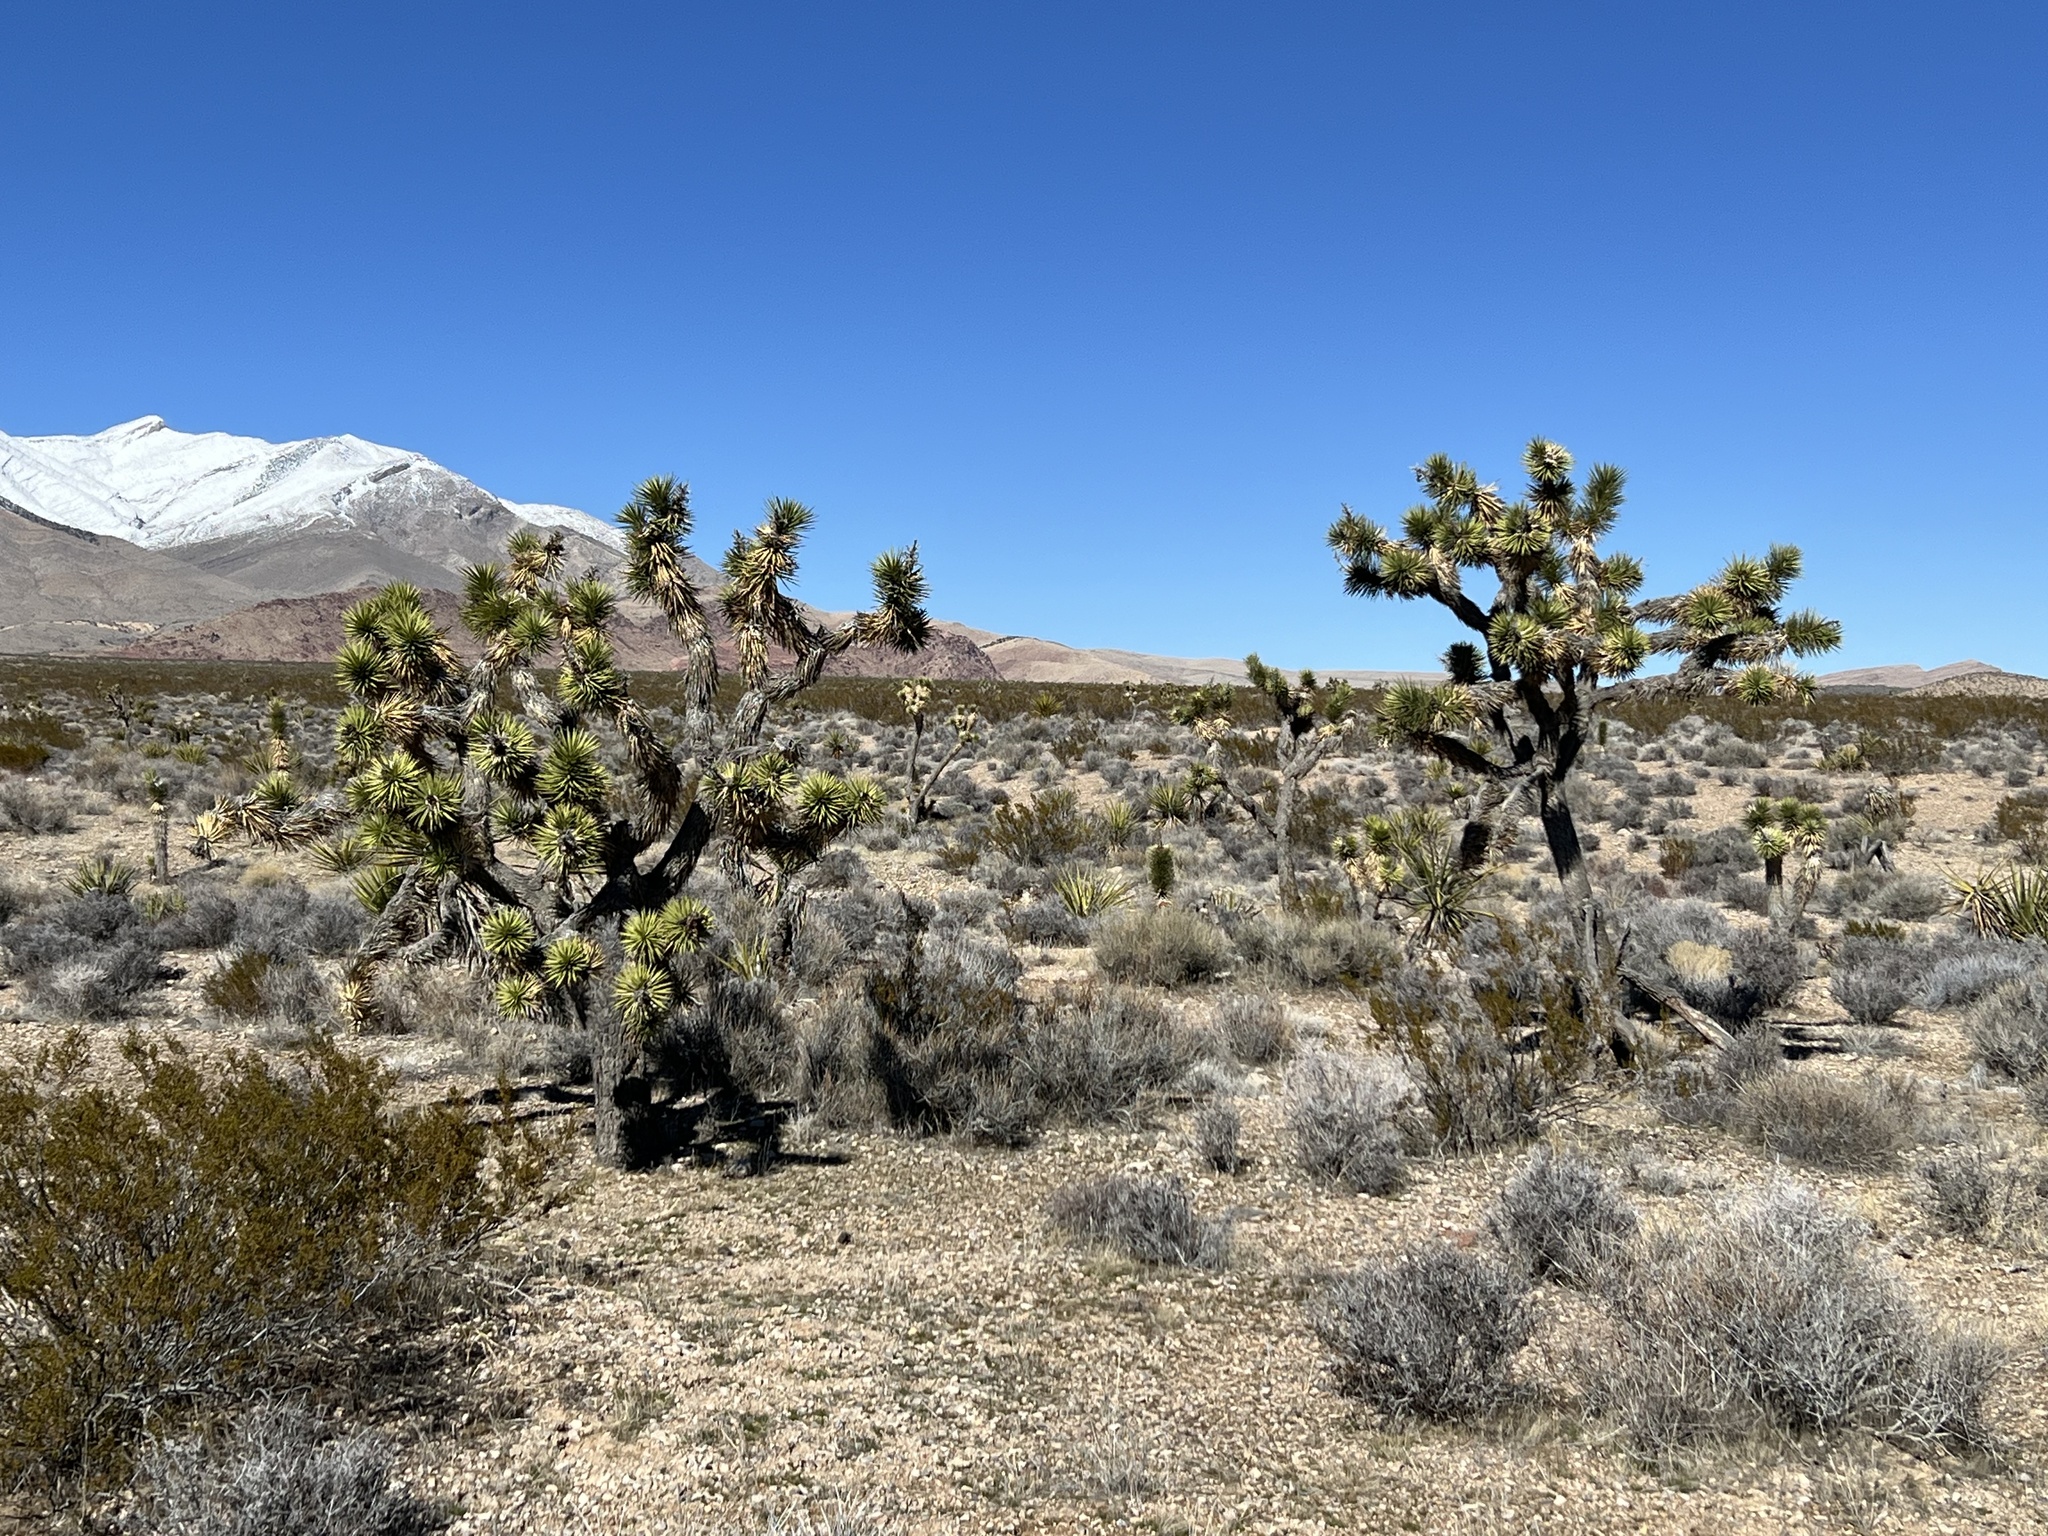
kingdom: Plantae
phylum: Tracheophyta
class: Liliopsida
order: Asparagales
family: Asparagaceae
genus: Yucca
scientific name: Yucca brevifolia
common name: Joshua tree
